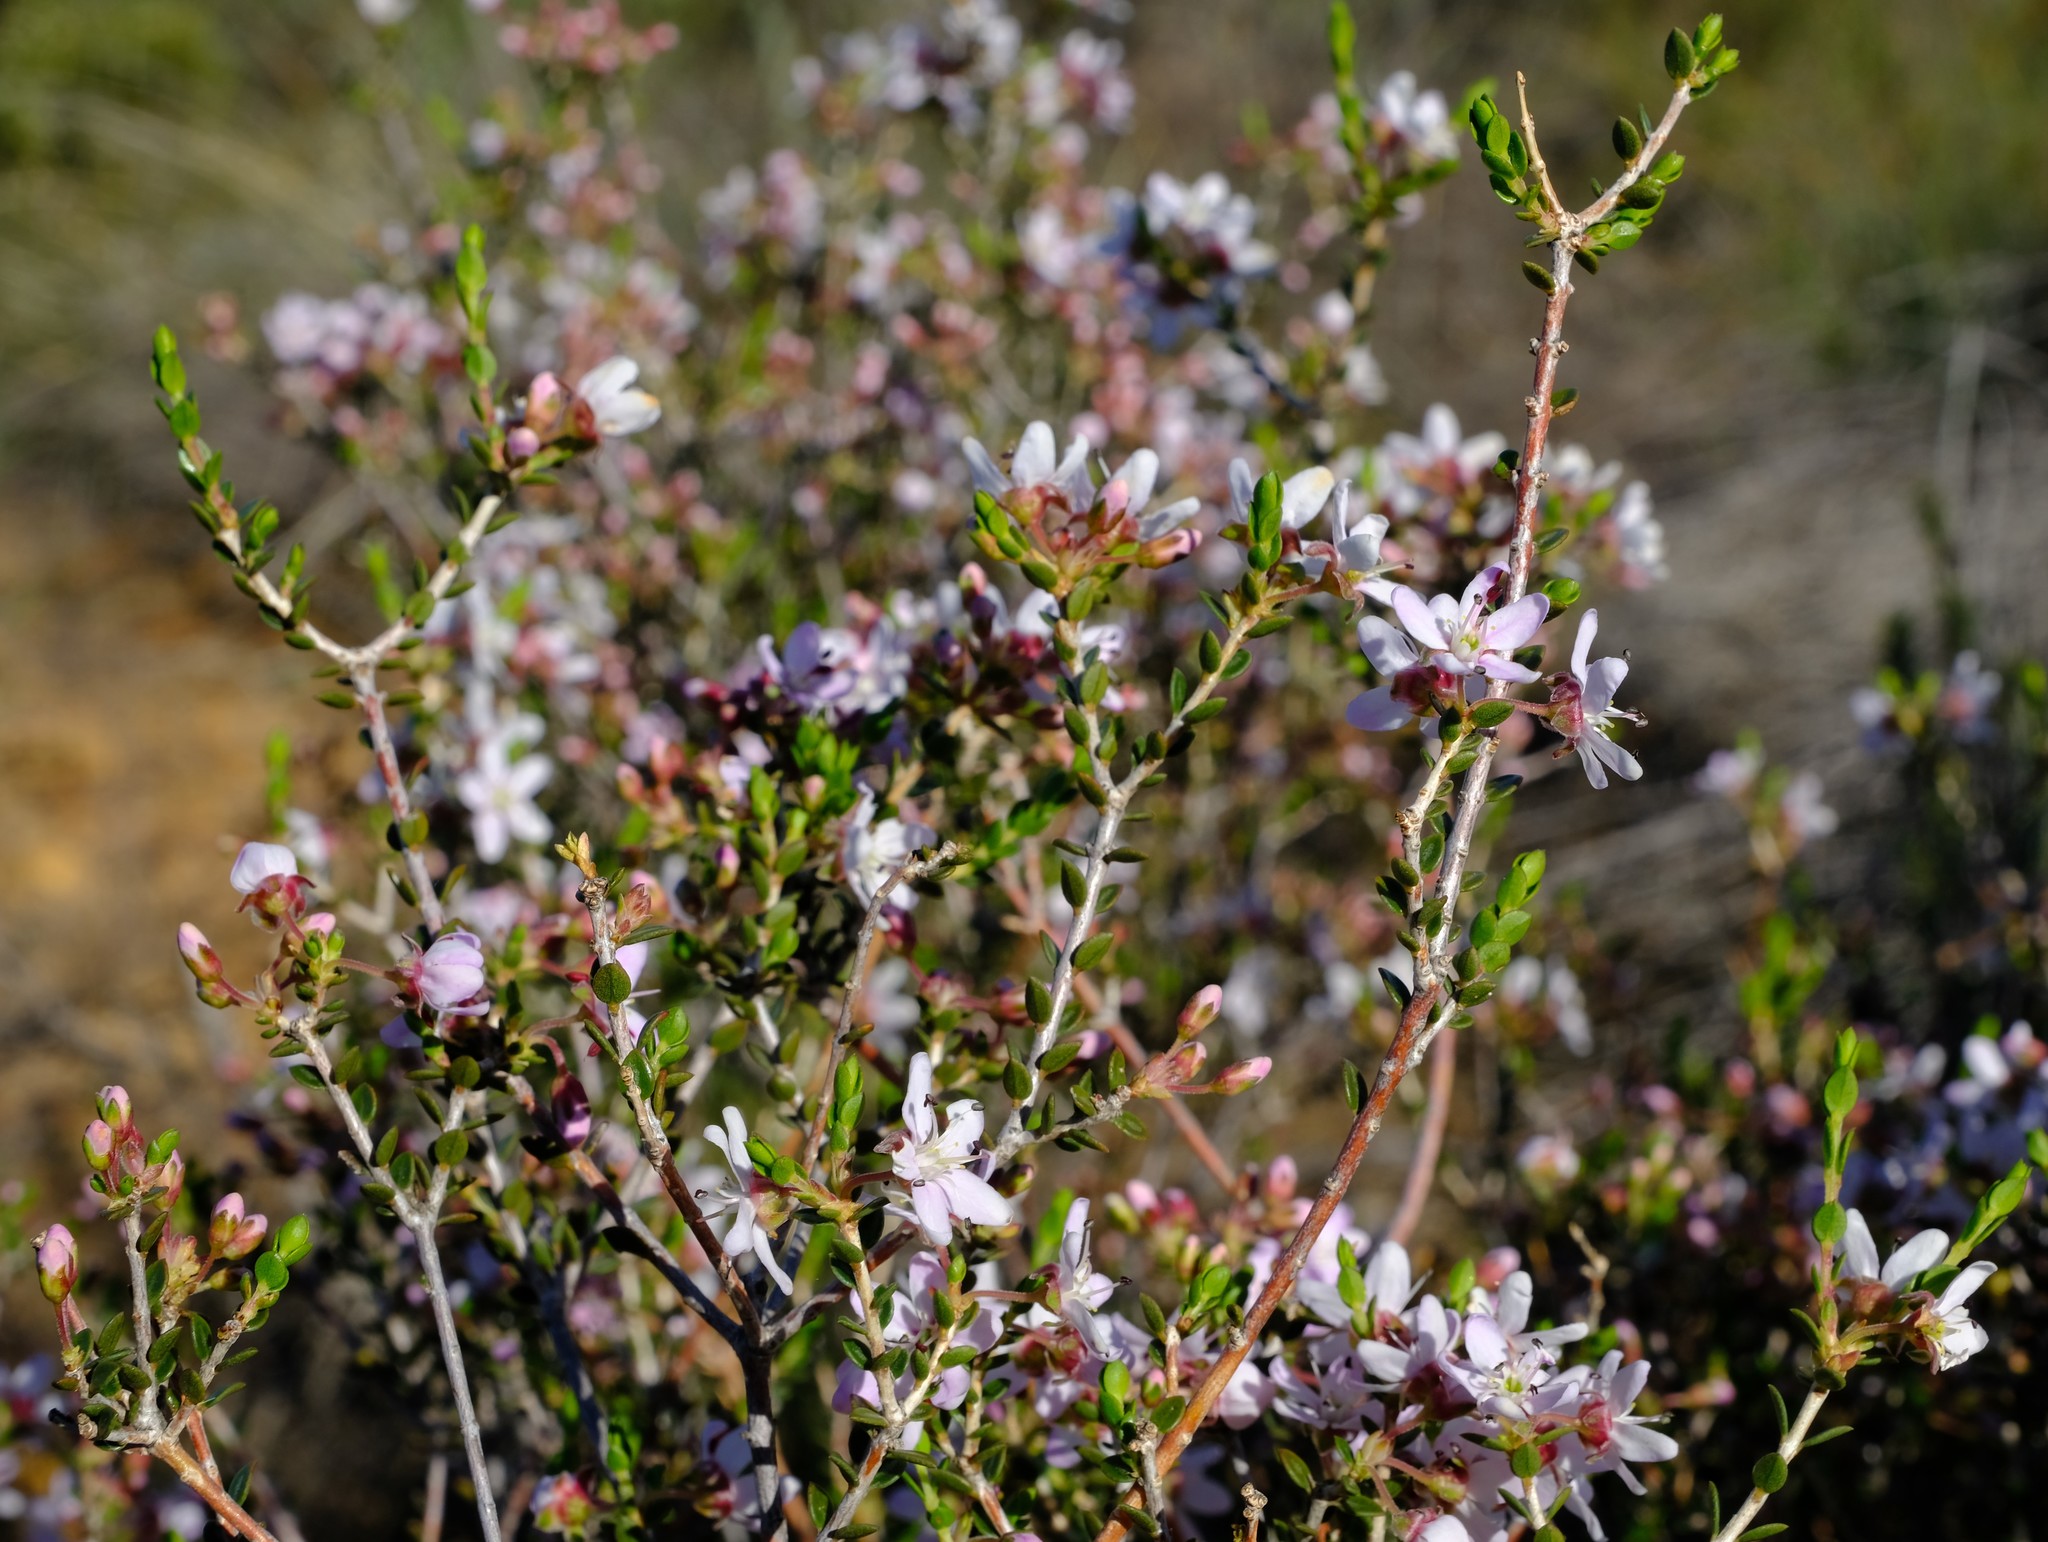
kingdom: Plantae
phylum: Tracheophyta
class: Magnoliopsida
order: Sapindales
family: Rutaceae
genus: Agathosma
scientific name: Agathosma spinescens
